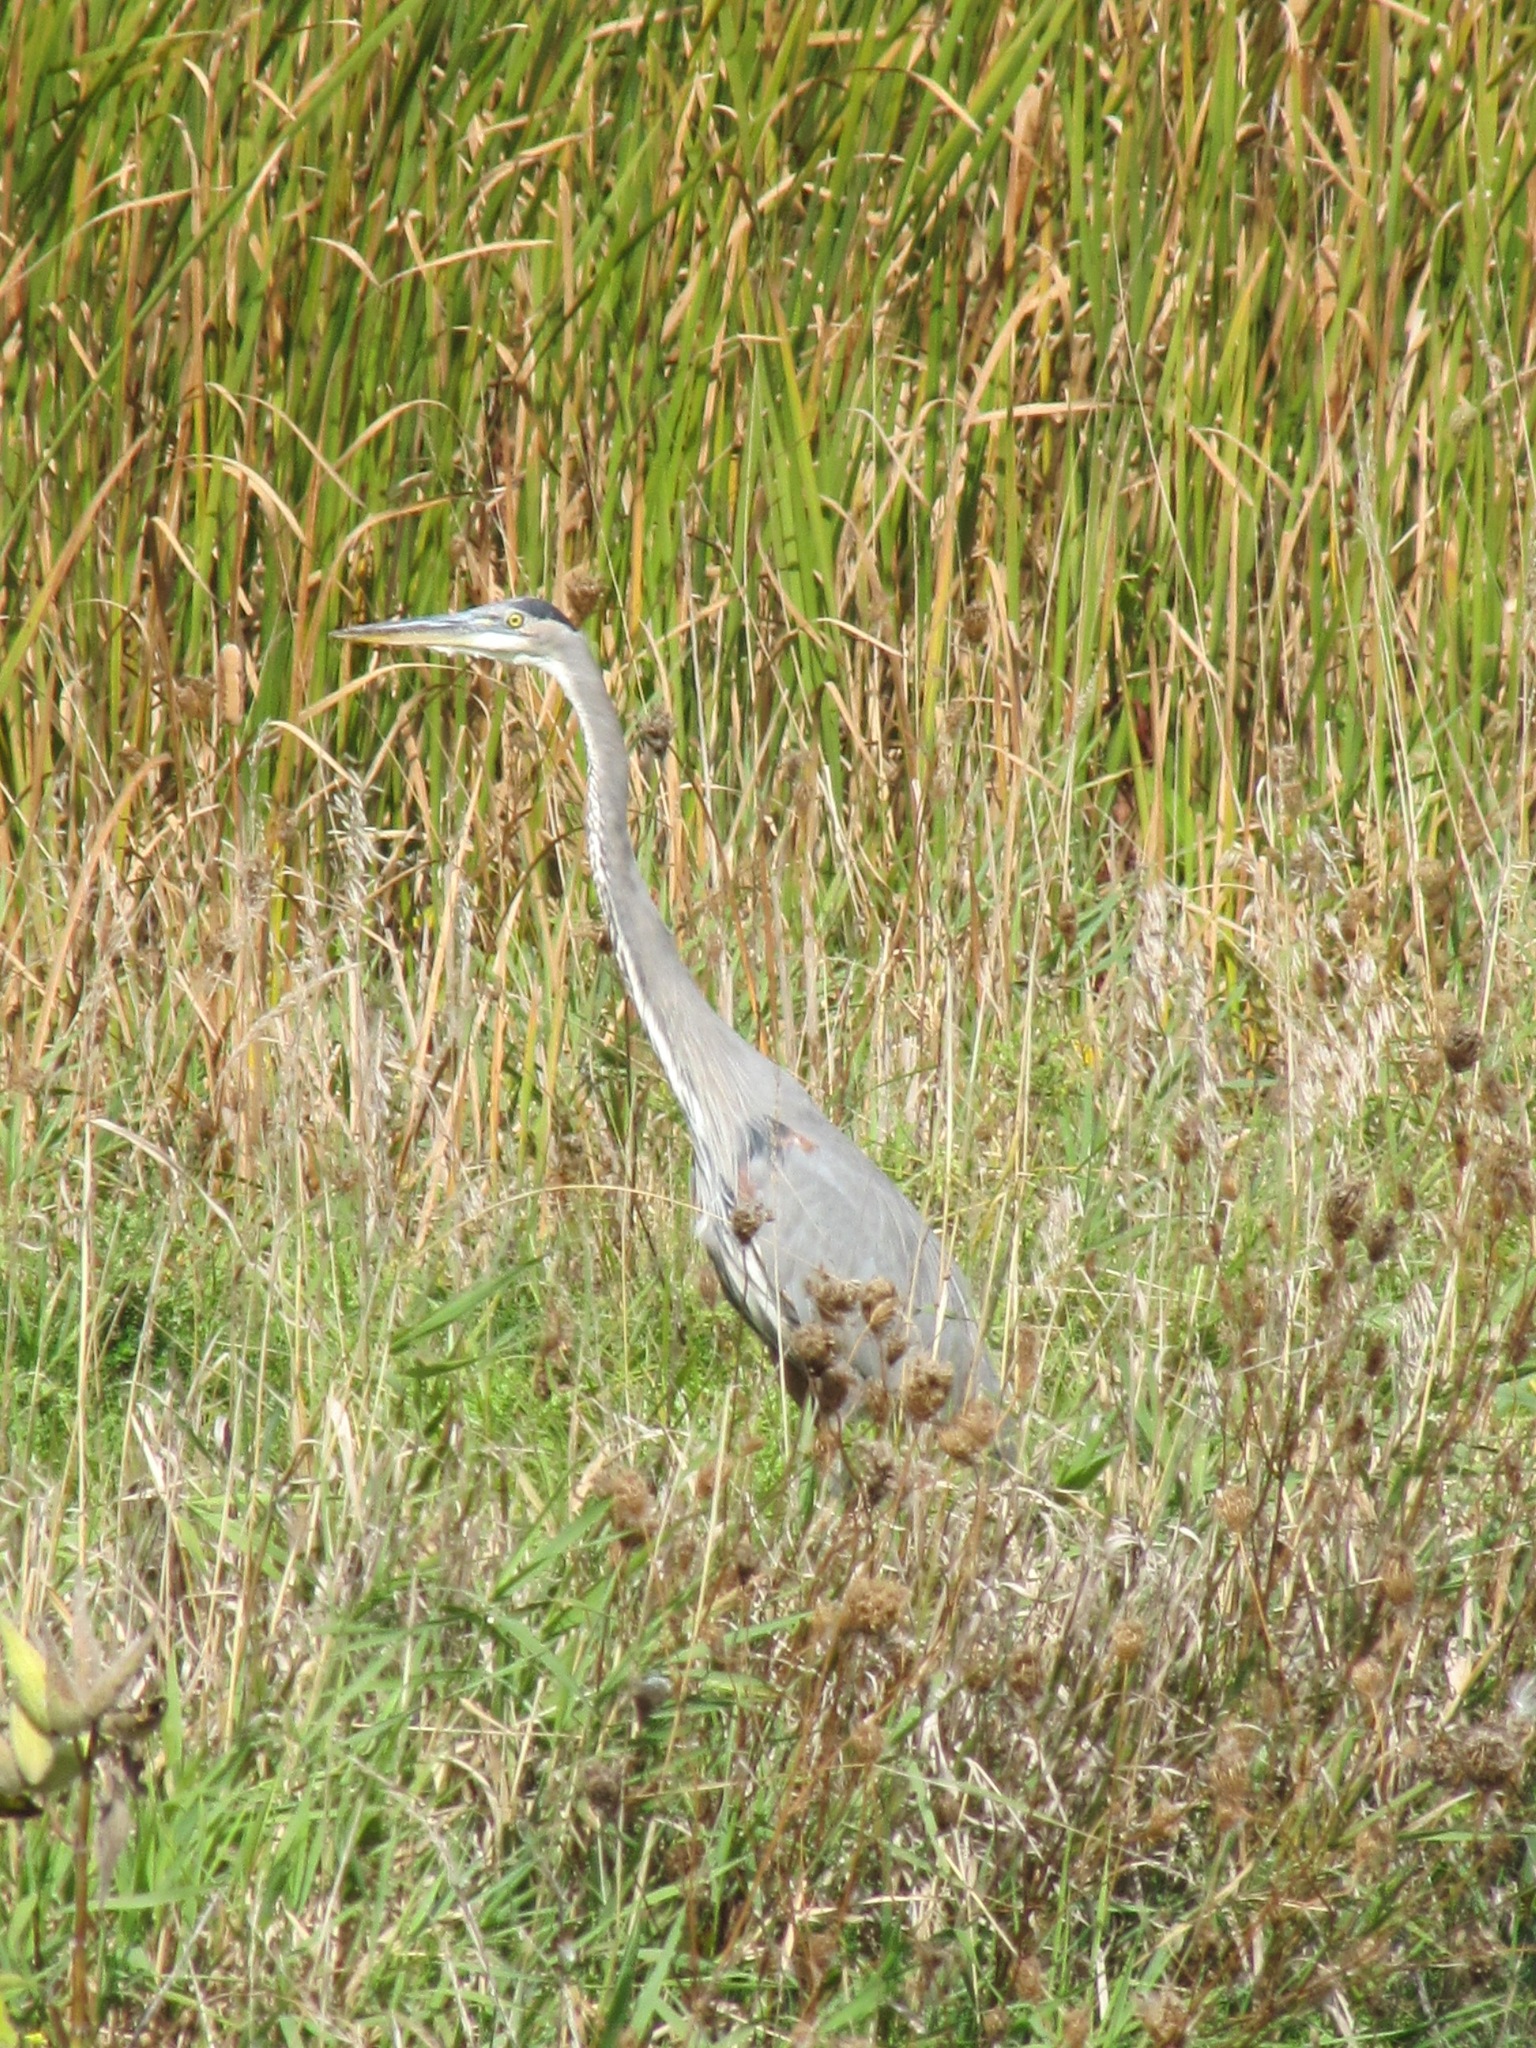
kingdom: Animalia
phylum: Chordata
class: Aves
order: Pelecaniformes
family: Ardeidae
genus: Ardea
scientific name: Ardea herodias
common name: Great blue heron
